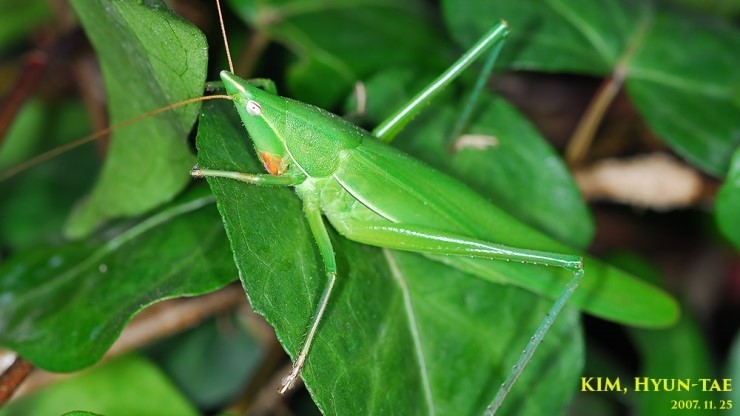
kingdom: Animalia
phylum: Arthropoda
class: Insecta
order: Orthoptera
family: Tettigoniidae
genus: Euconocephalus
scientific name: Euconocephalus varius
